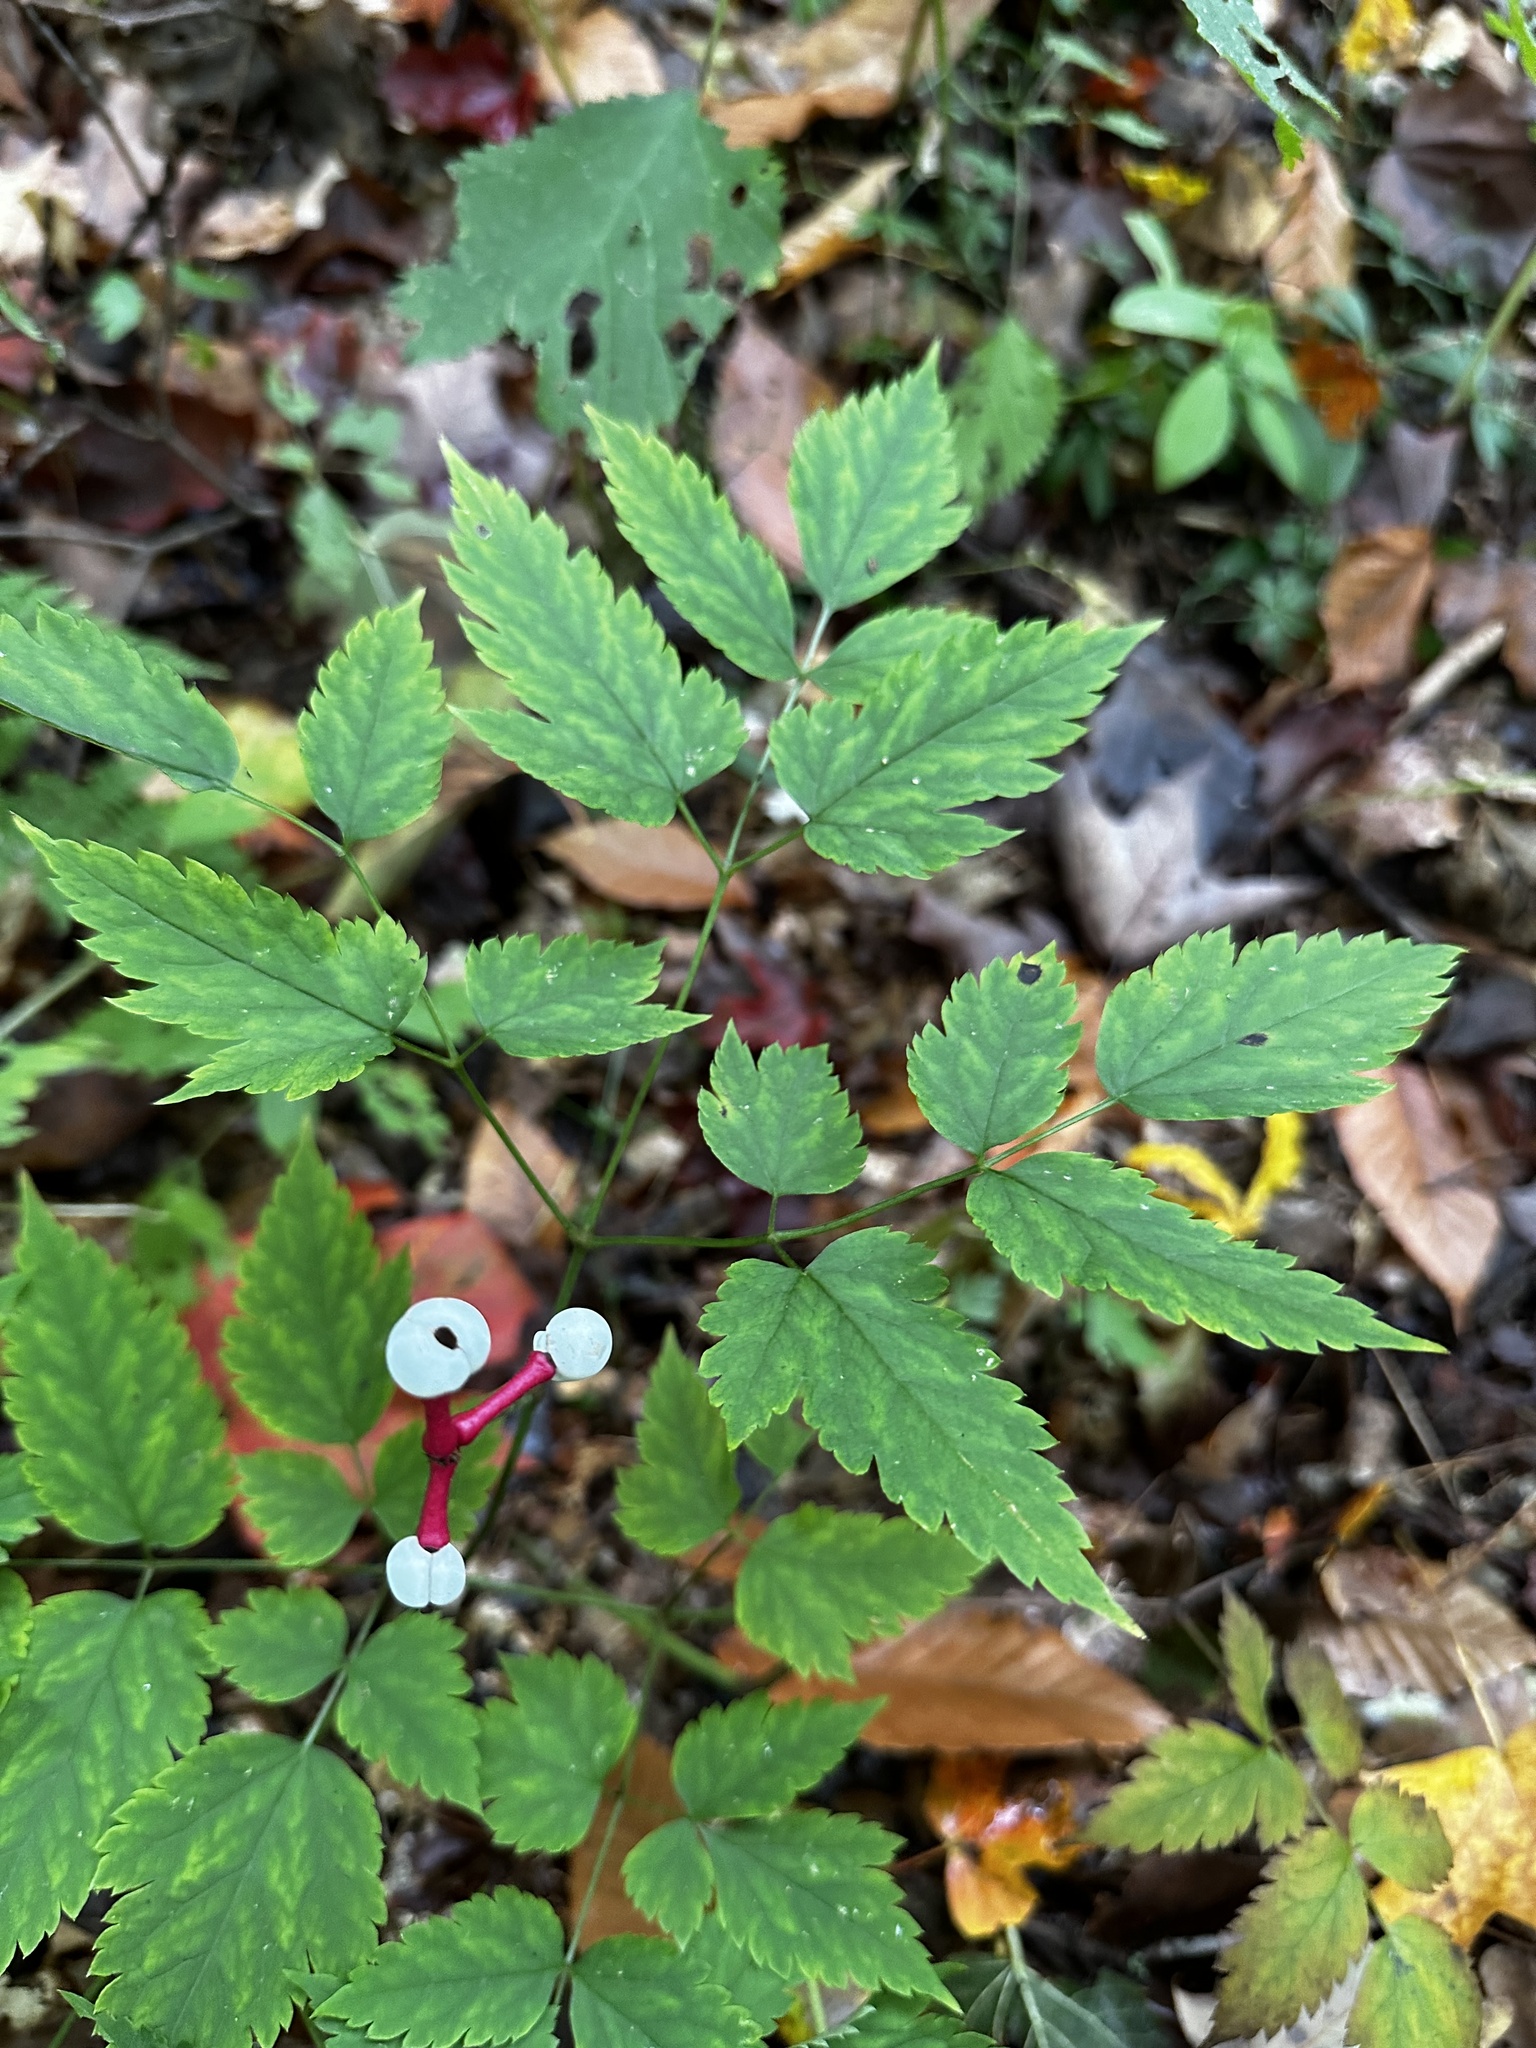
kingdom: Plantae
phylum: Tracheophyta
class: Magnoliopsida
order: Ranunculales
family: Ranunculaceae
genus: Actaea
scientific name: Actaea pachypoda
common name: Doll's-eyes
